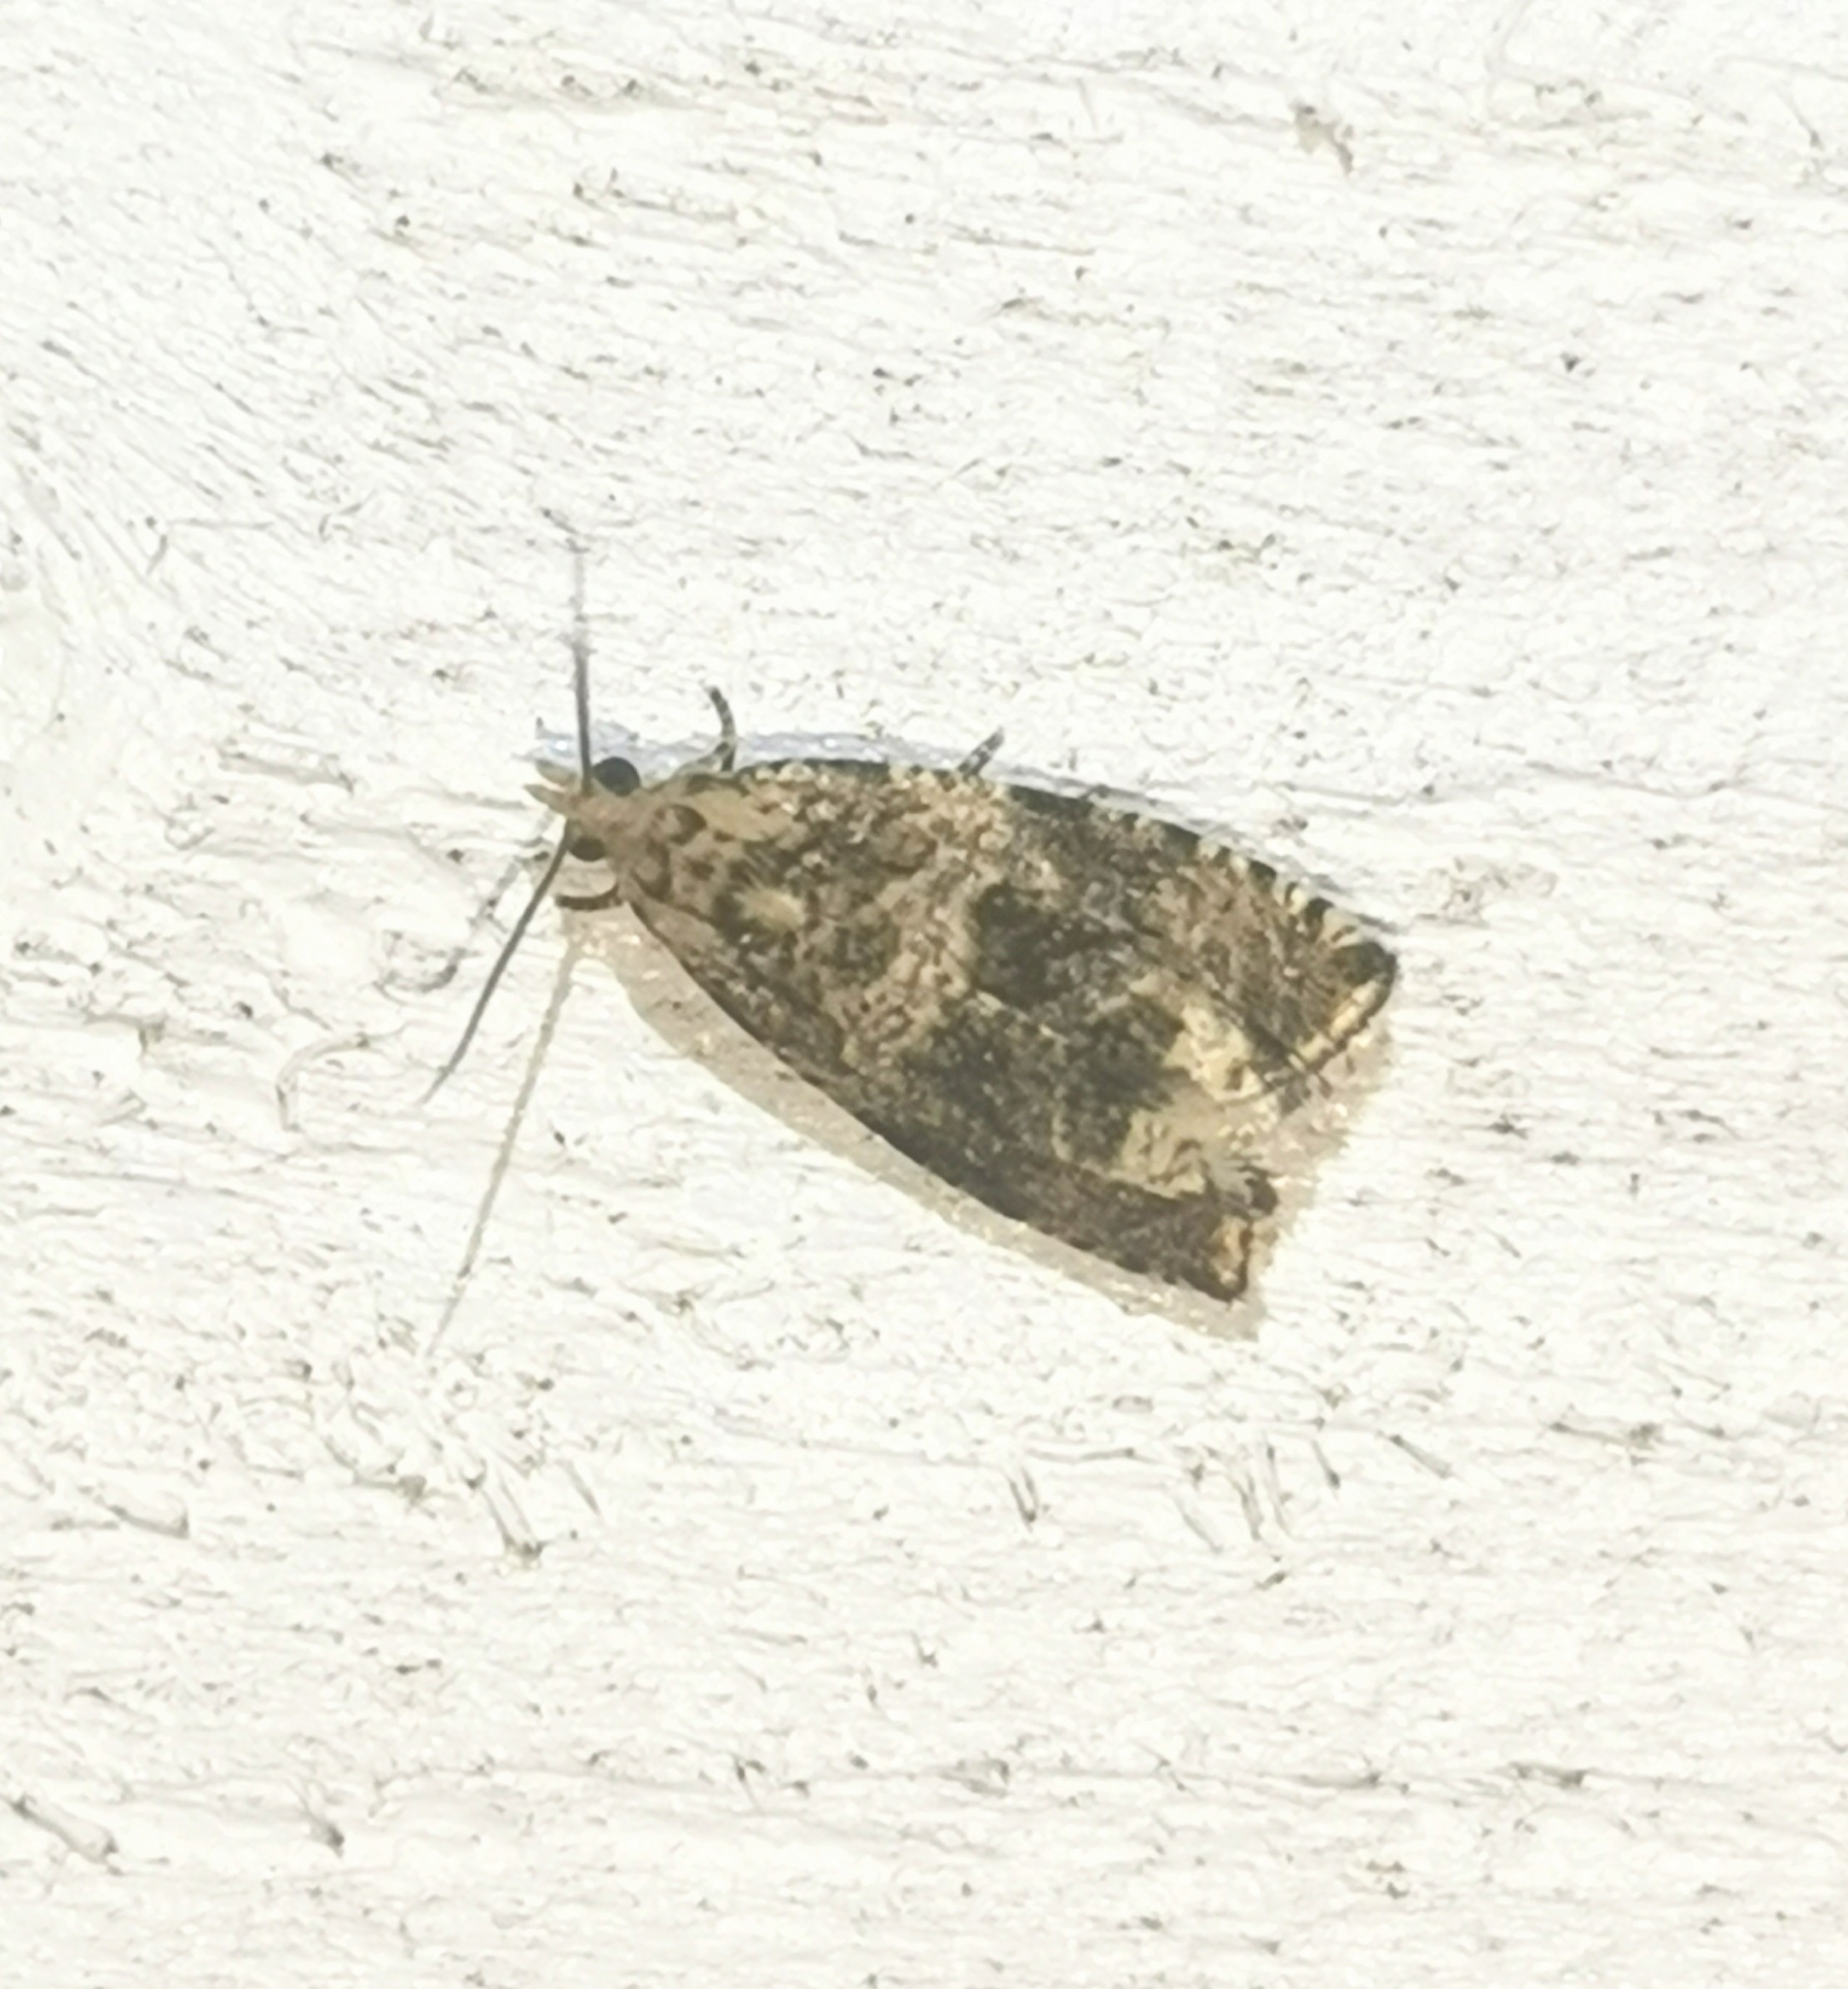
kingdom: Animalia
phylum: Arthropoda
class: Insecta
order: Lepidoptera
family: Tortricidae
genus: Syricoris
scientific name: Syricoris lacunana
